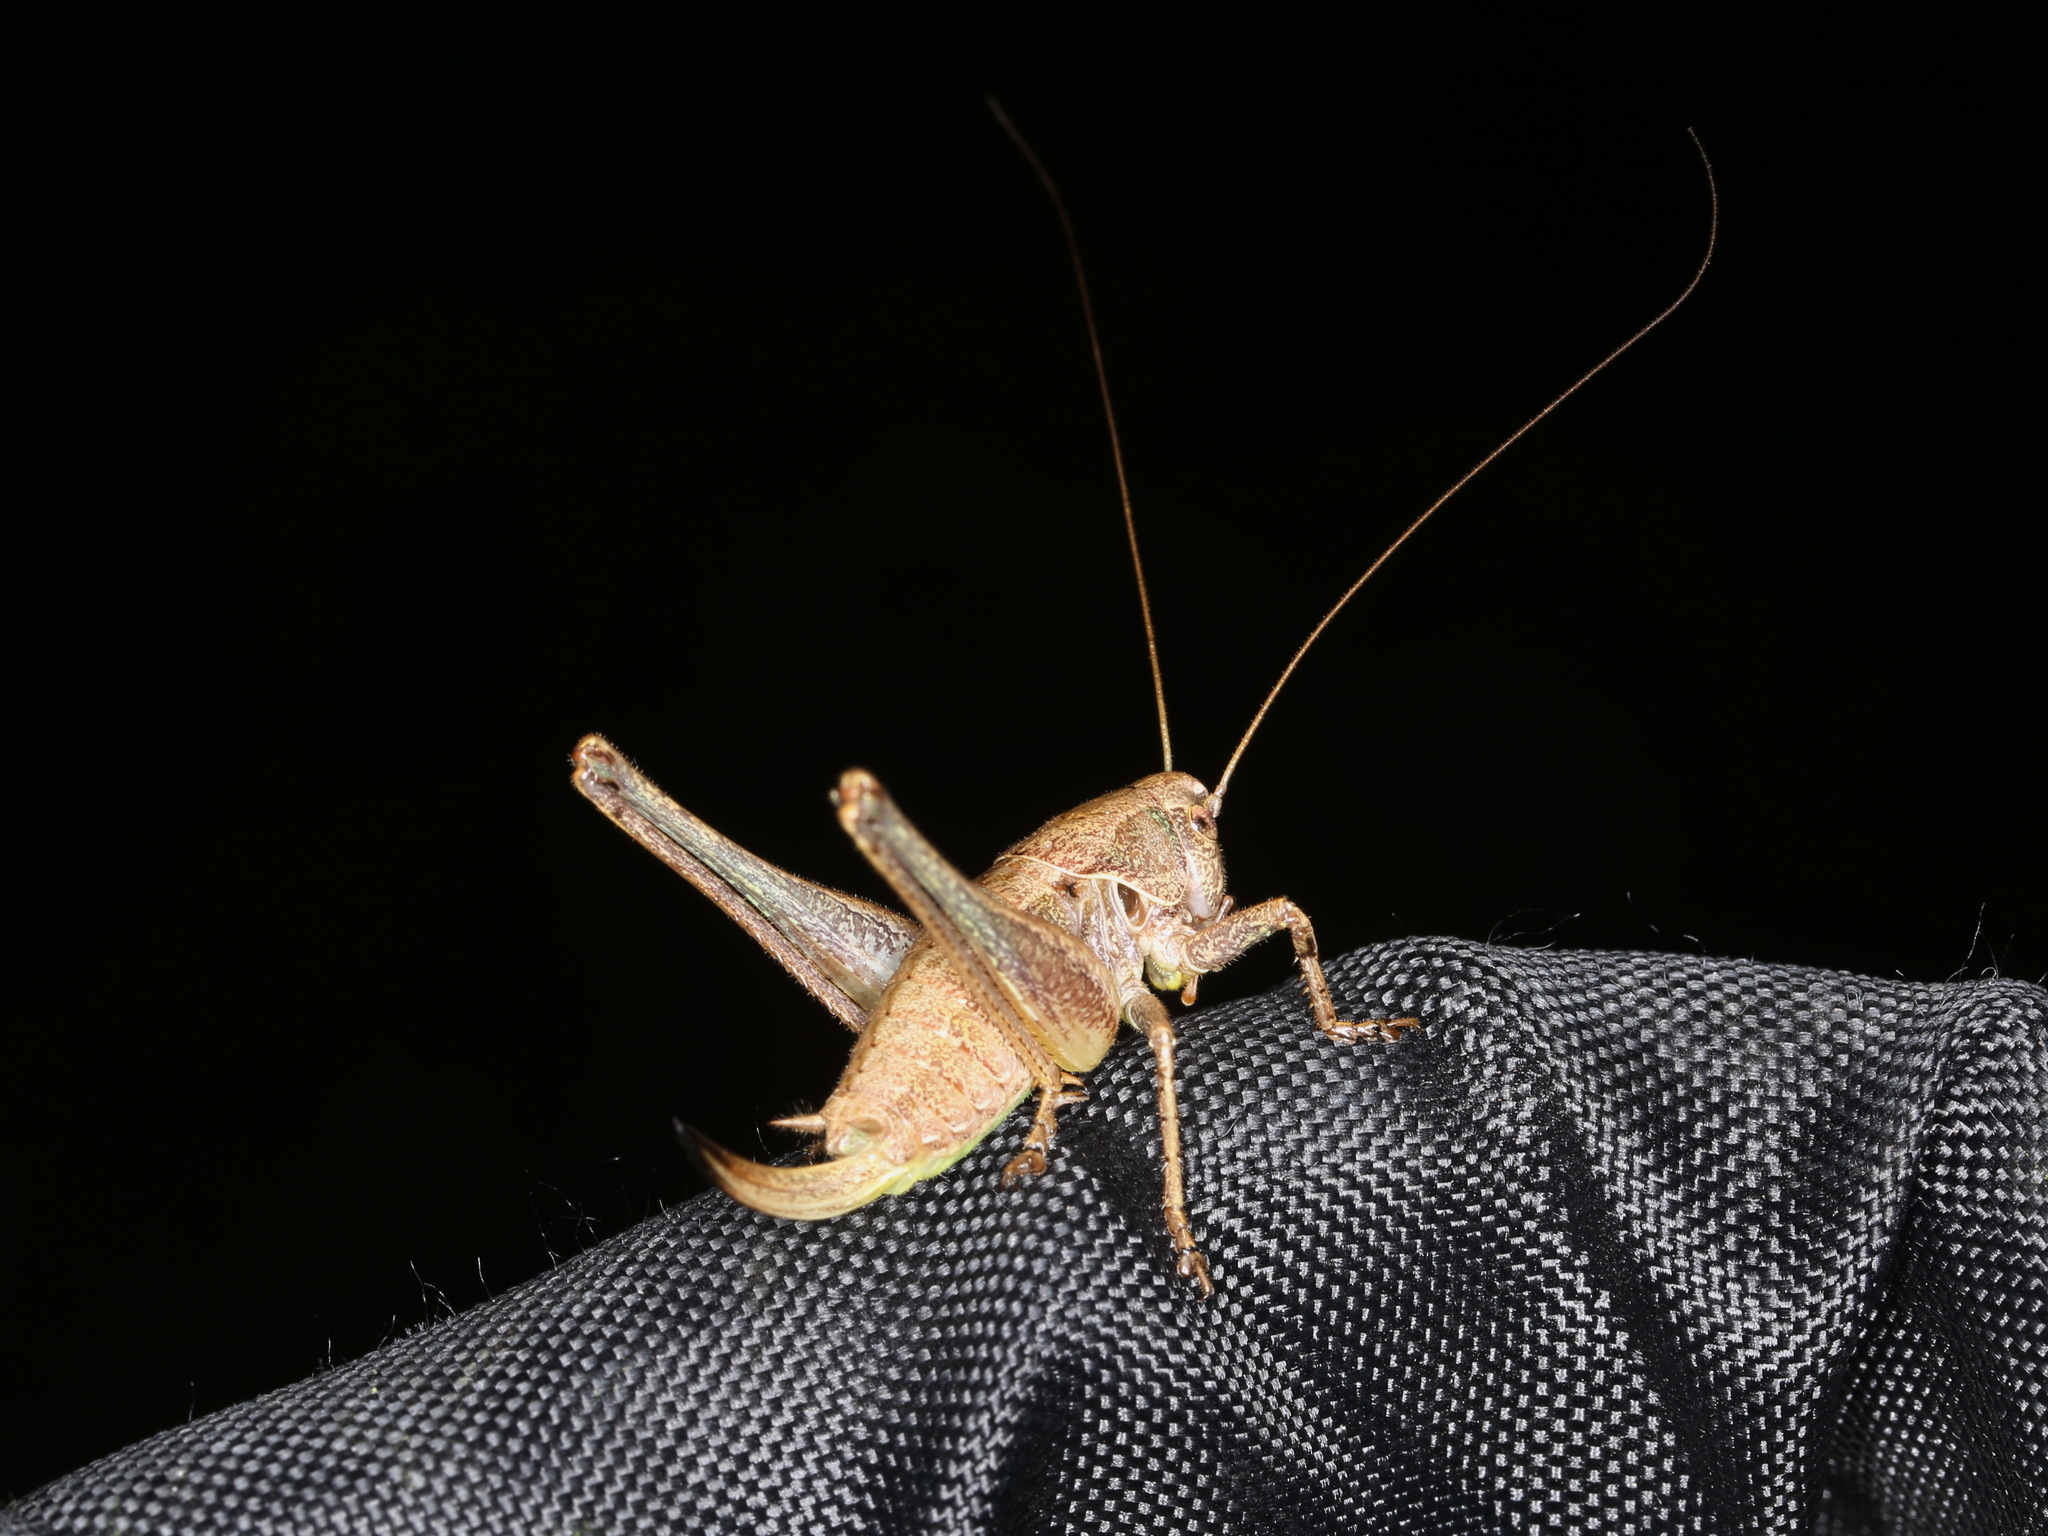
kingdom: Animalia
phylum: Arthropoda
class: Insecta
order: Orthoptera
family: Tettigoniidae
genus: Pholidoptera
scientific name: Pholidoptera griseoaptera
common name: Dark bush-cricket
